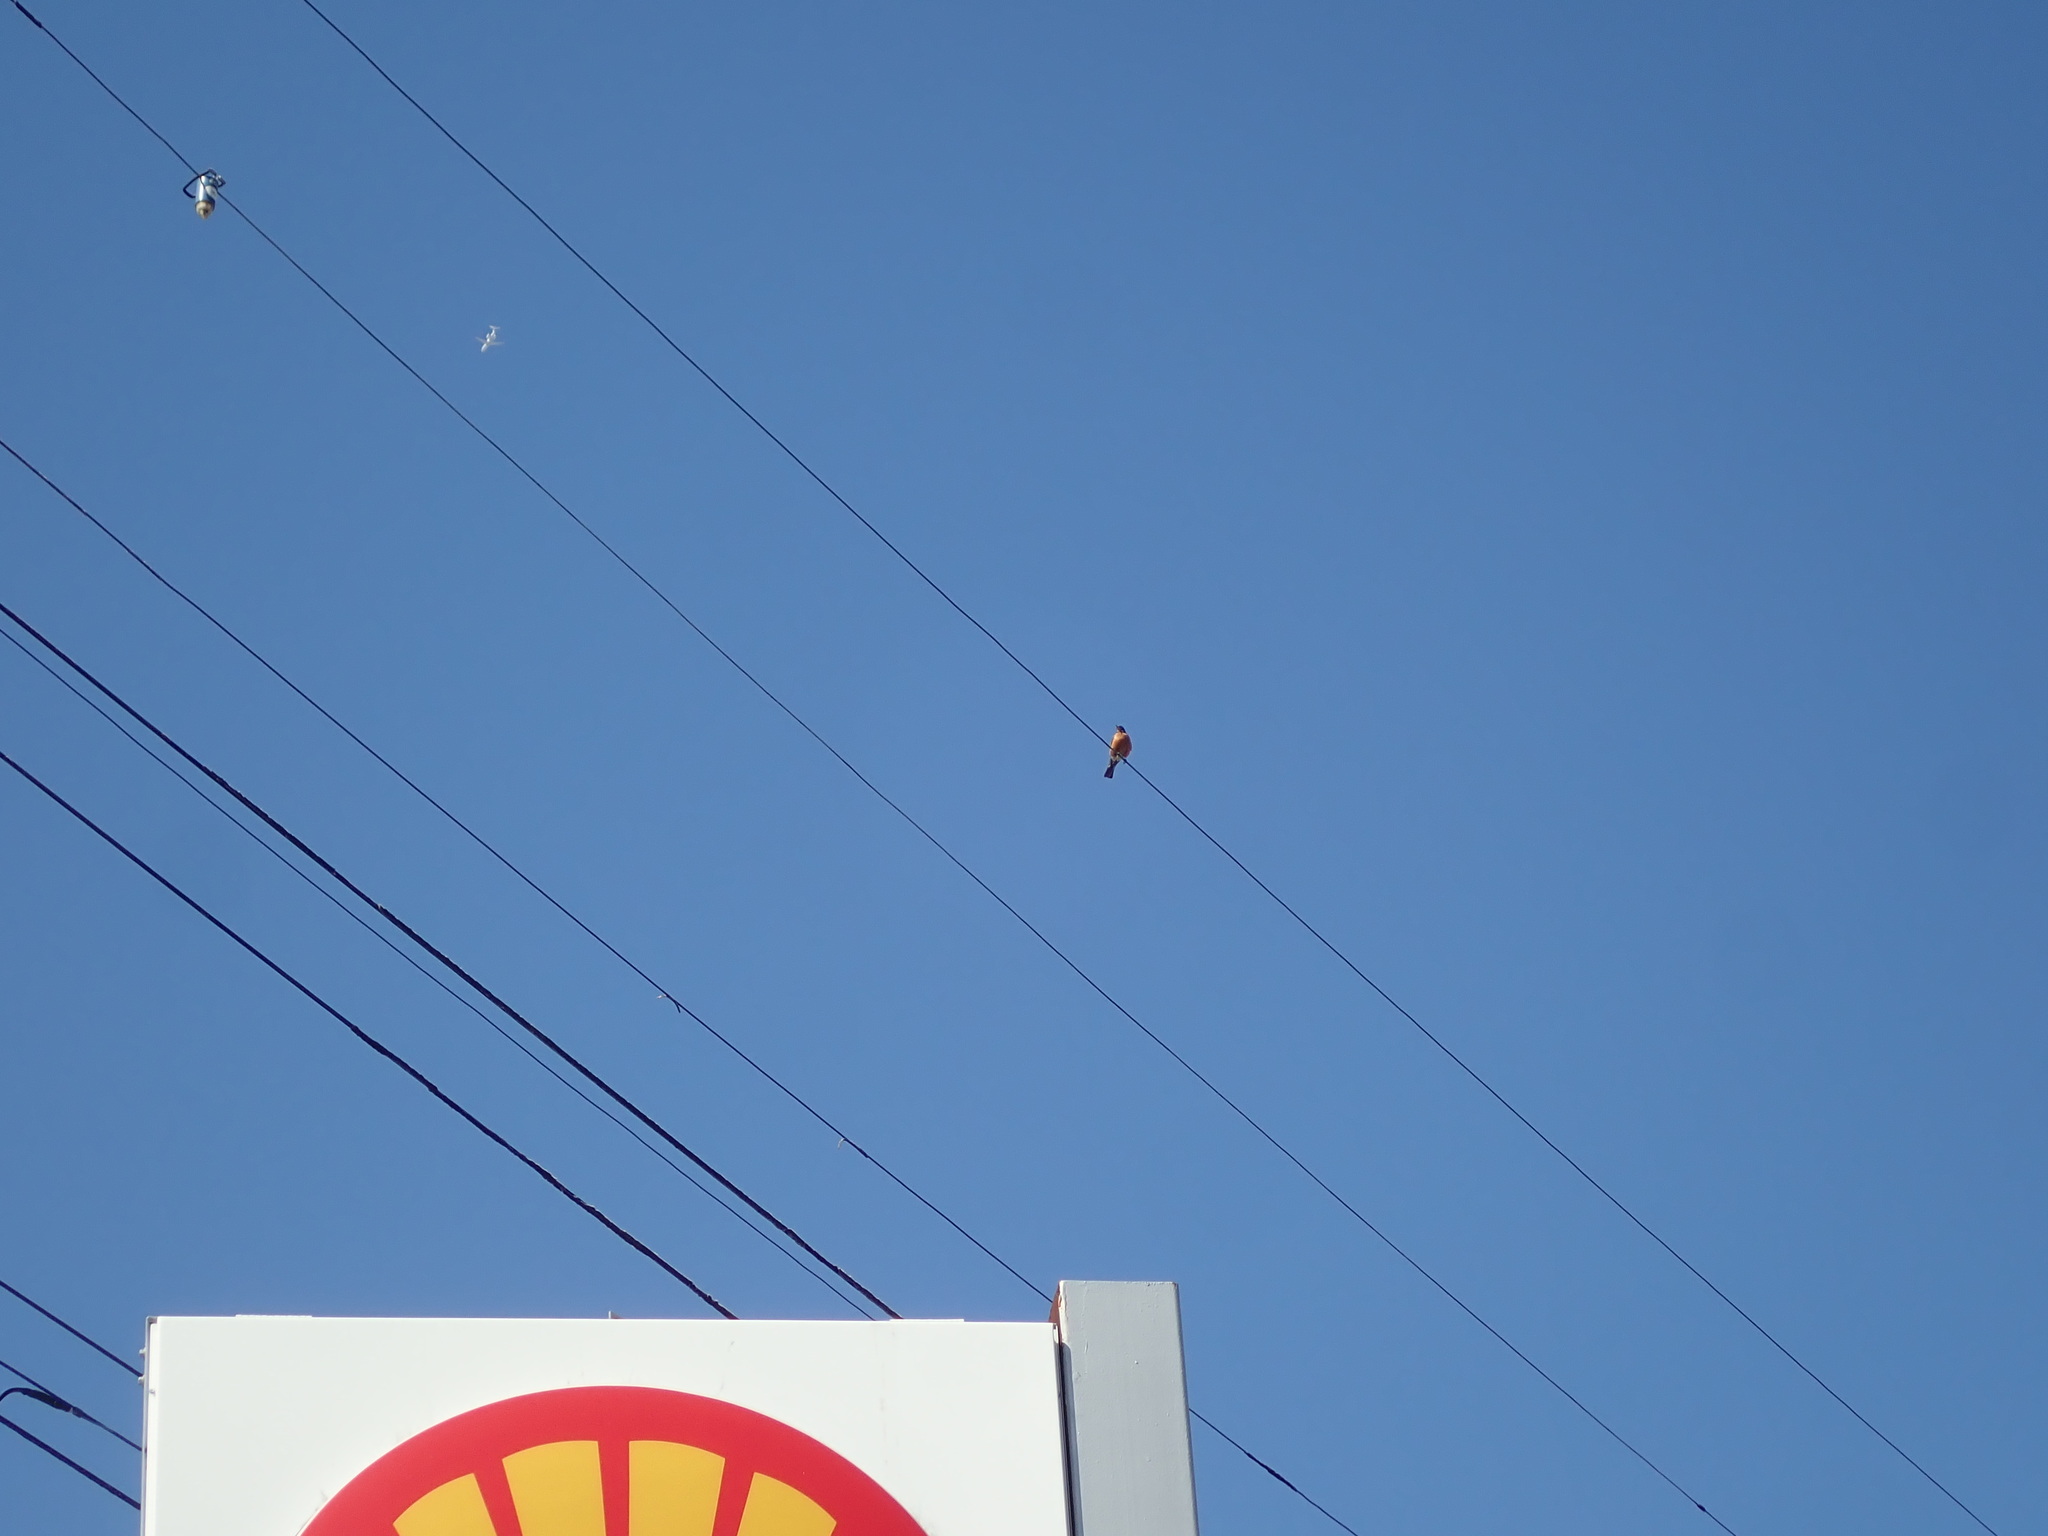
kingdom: Animalia
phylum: Chordata
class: Aves
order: Passeriformes
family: Turdidae
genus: Turdus
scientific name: Turdus migratorius
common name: American robin
